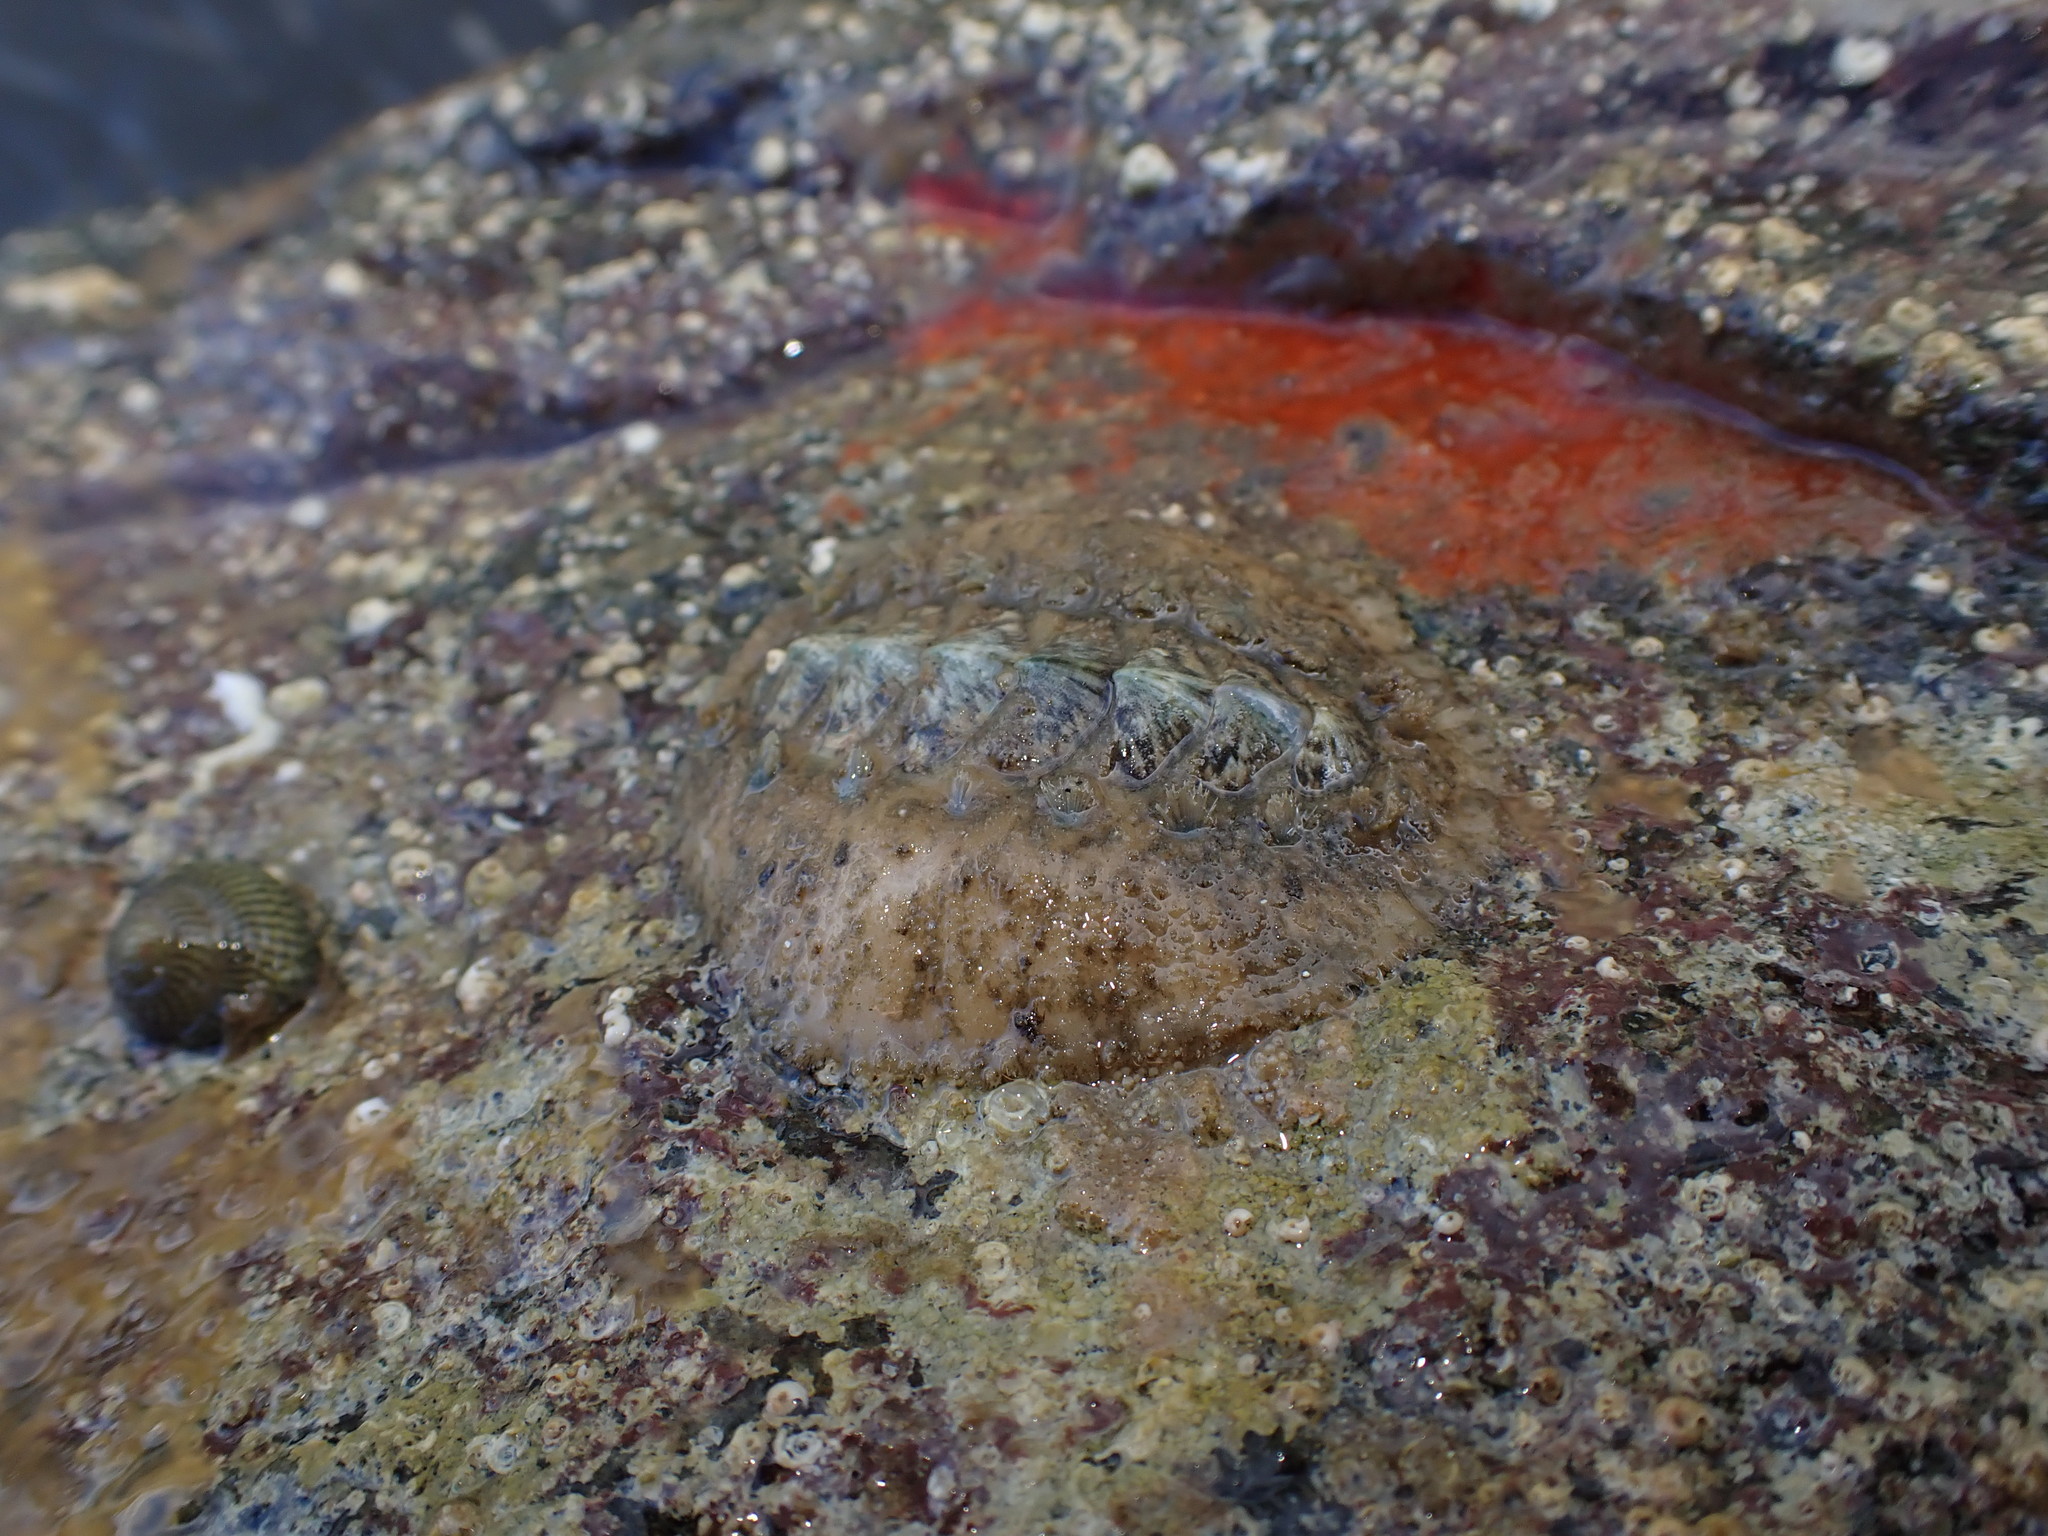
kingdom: Animalia
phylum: Mollusca
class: Polyplacophora
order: Chitonida
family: Acanthochitonidae
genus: Acanthochitona
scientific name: Acanthochitona fascicularis
